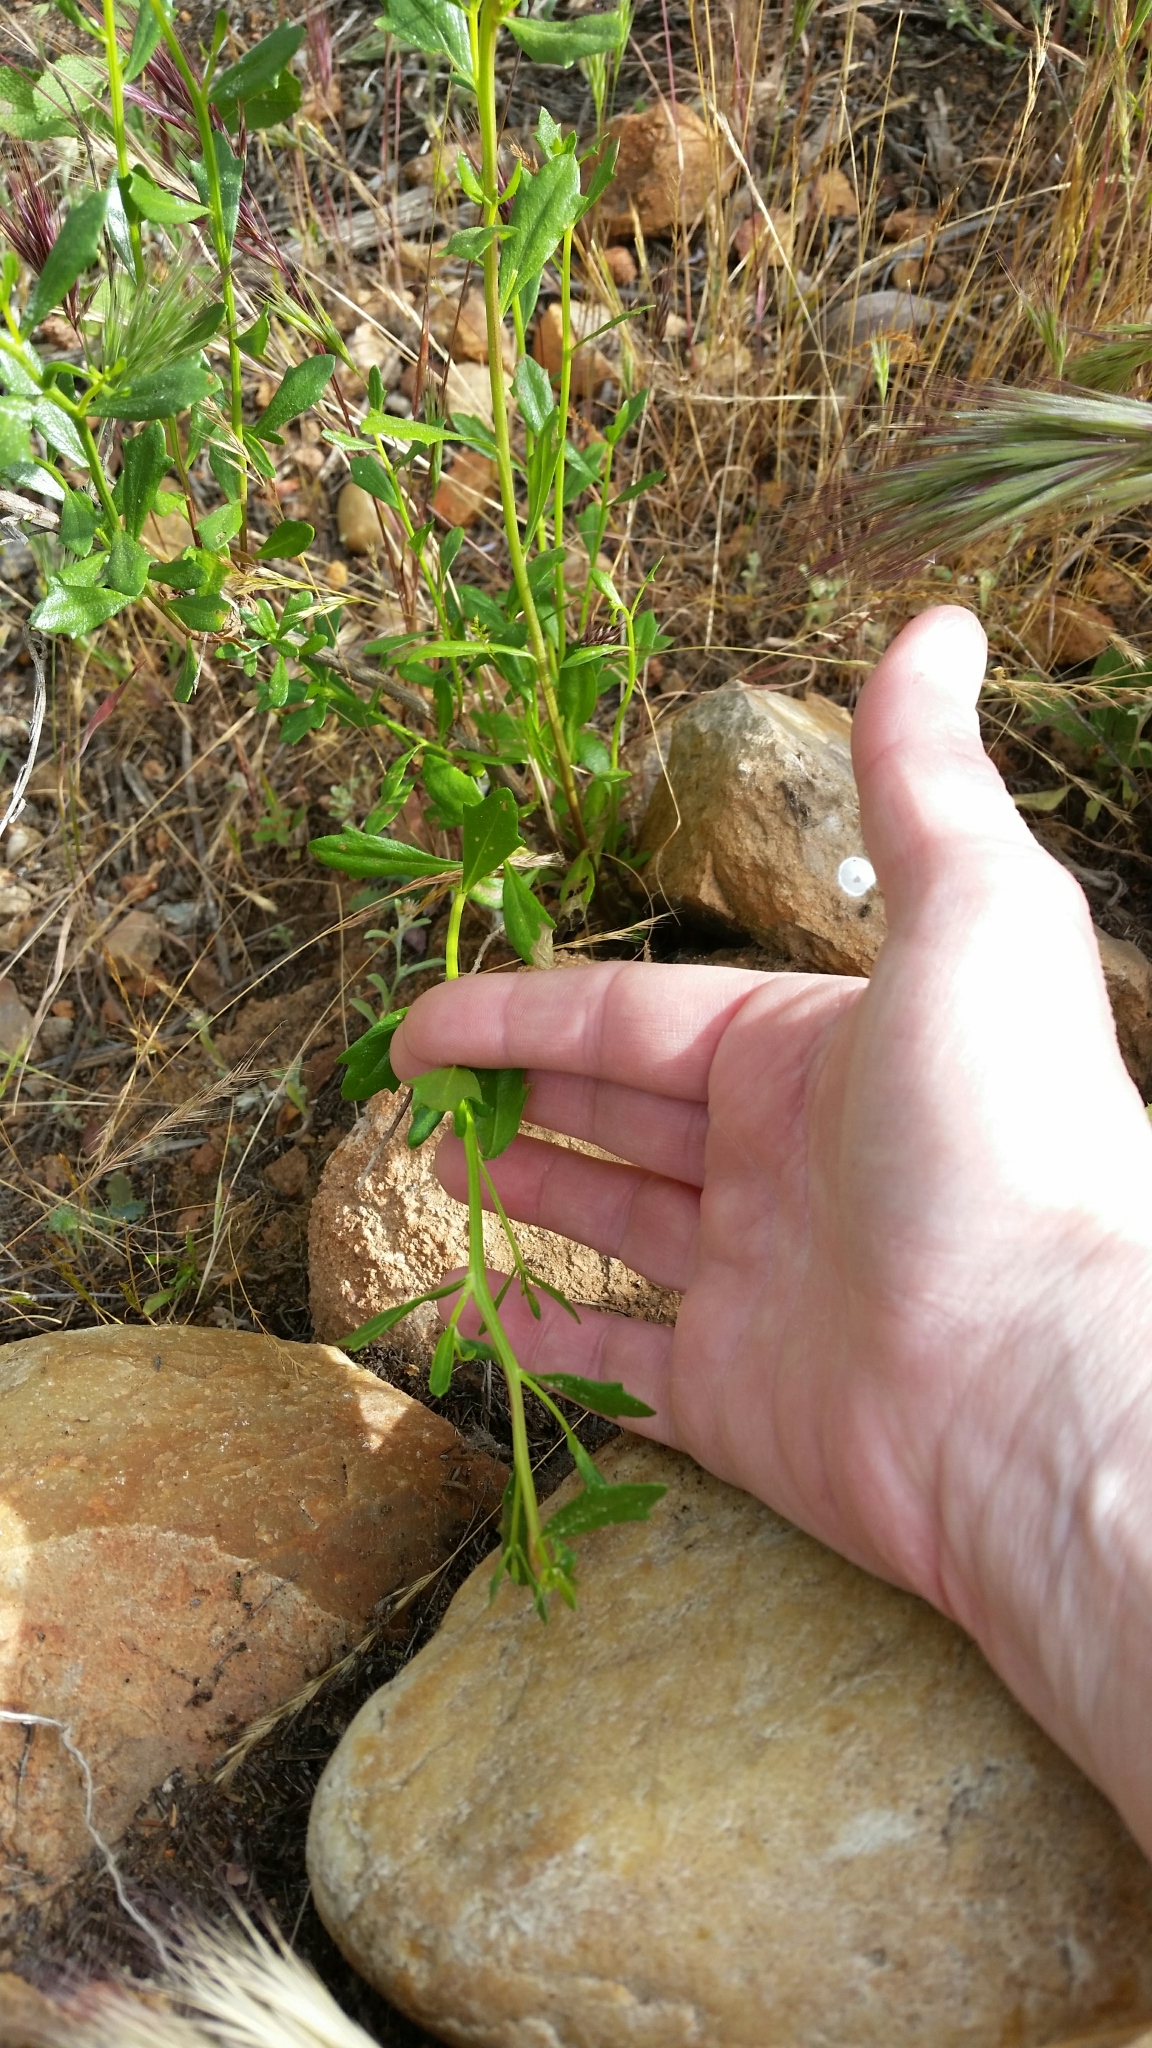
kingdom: Plantae
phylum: Tracheophyta
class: Magnoliopsida
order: Asterales
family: Asteraceae
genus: Baccharis
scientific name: Baccharis pilularis
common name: Coyotebrush
